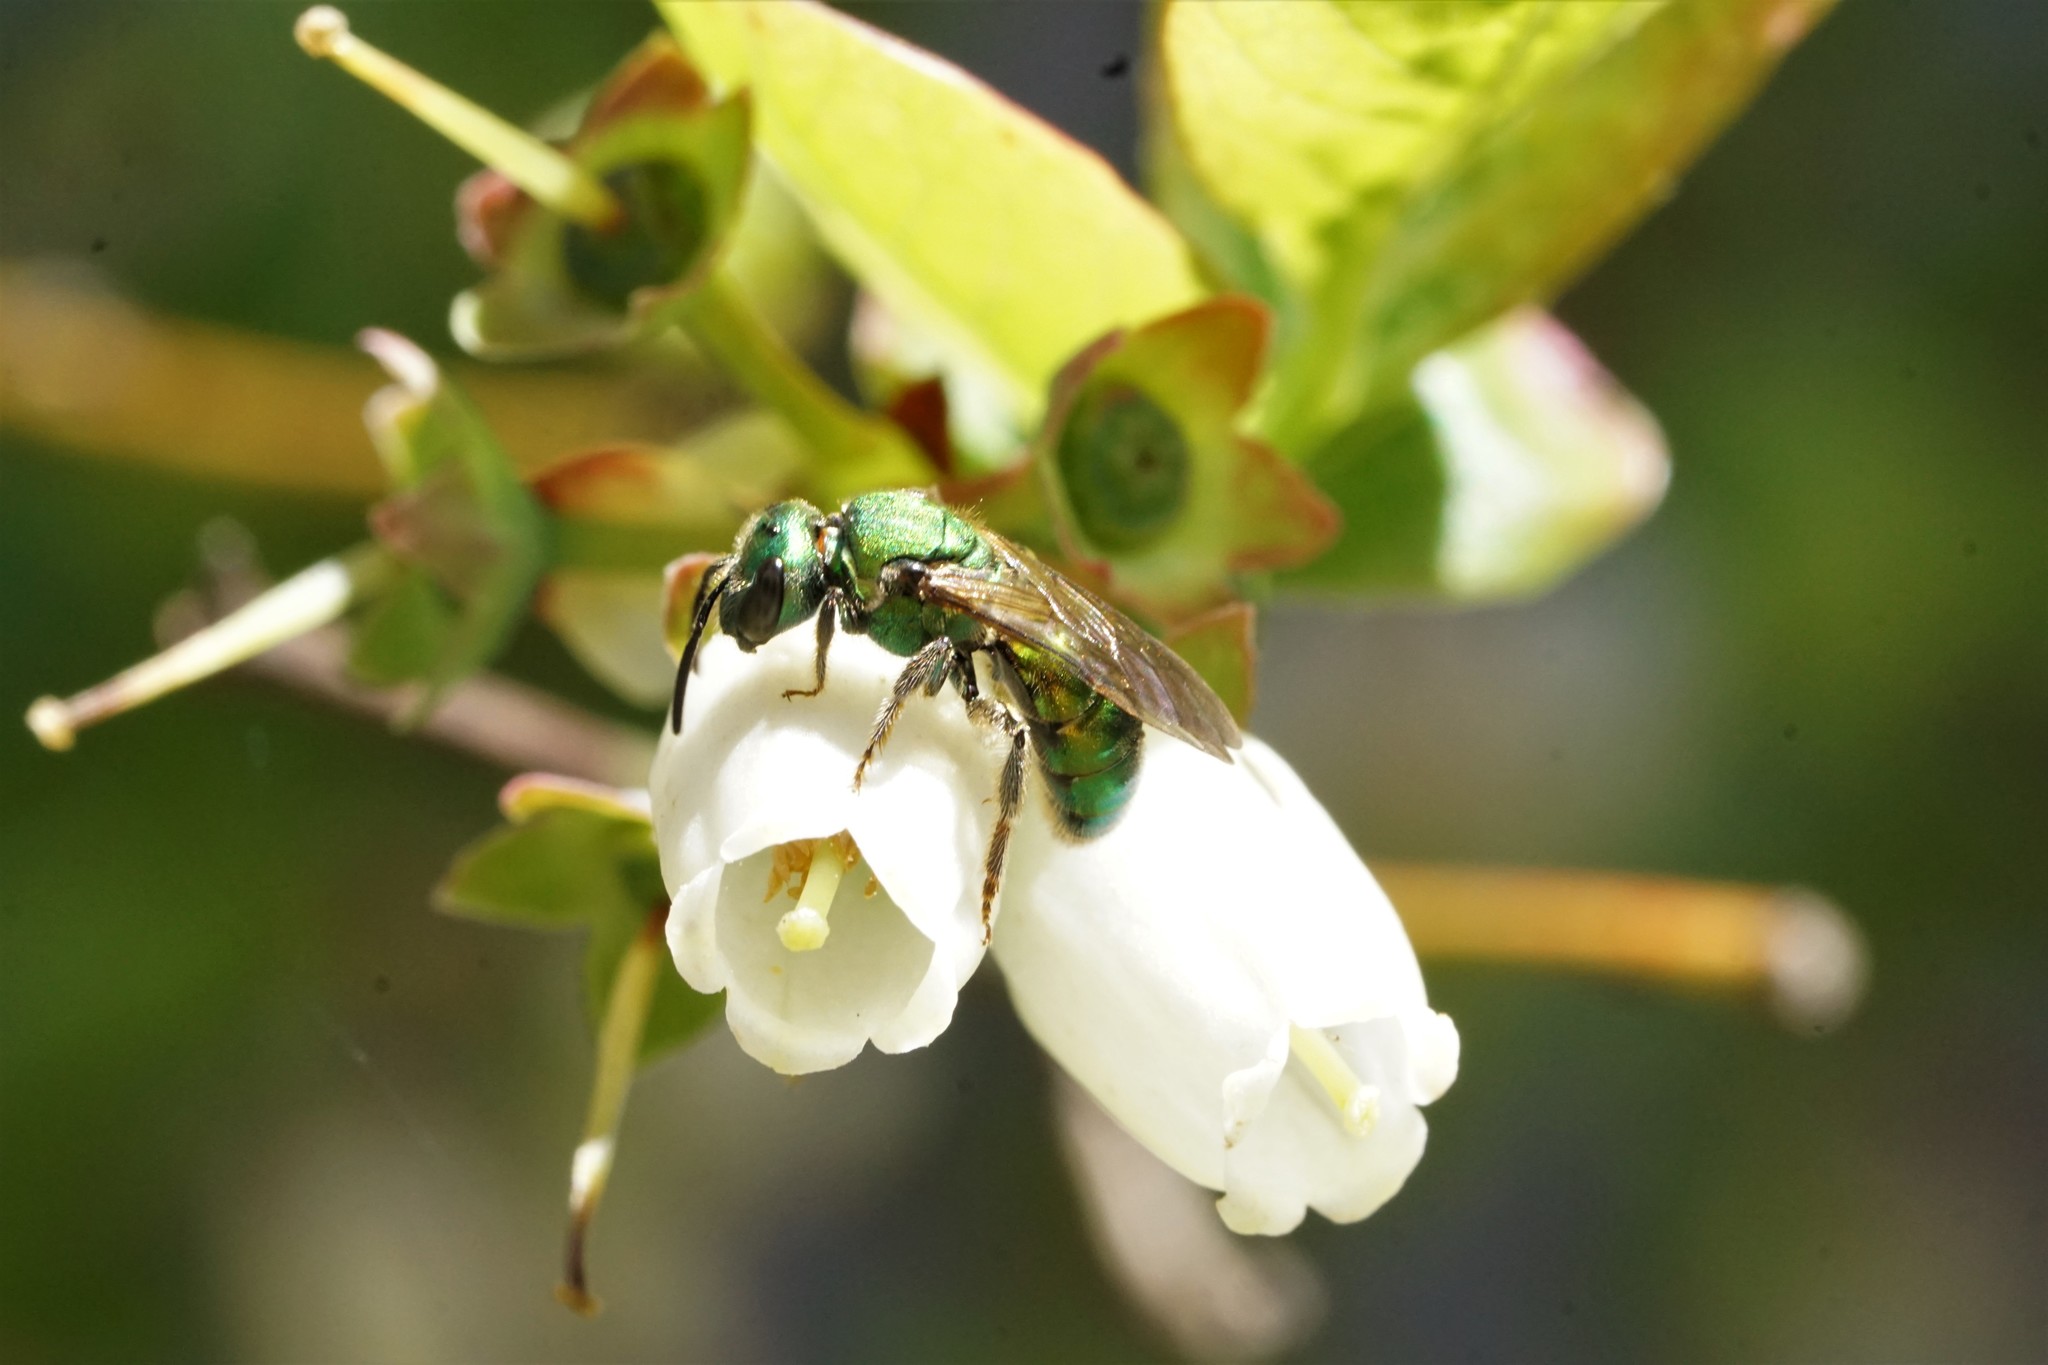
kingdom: Animalia
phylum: Arthropoda
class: Insecta
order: Hymenoptera
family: Halictidae
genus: Augochlora
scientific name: Augochlora pura
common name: Pure green sweat bee
